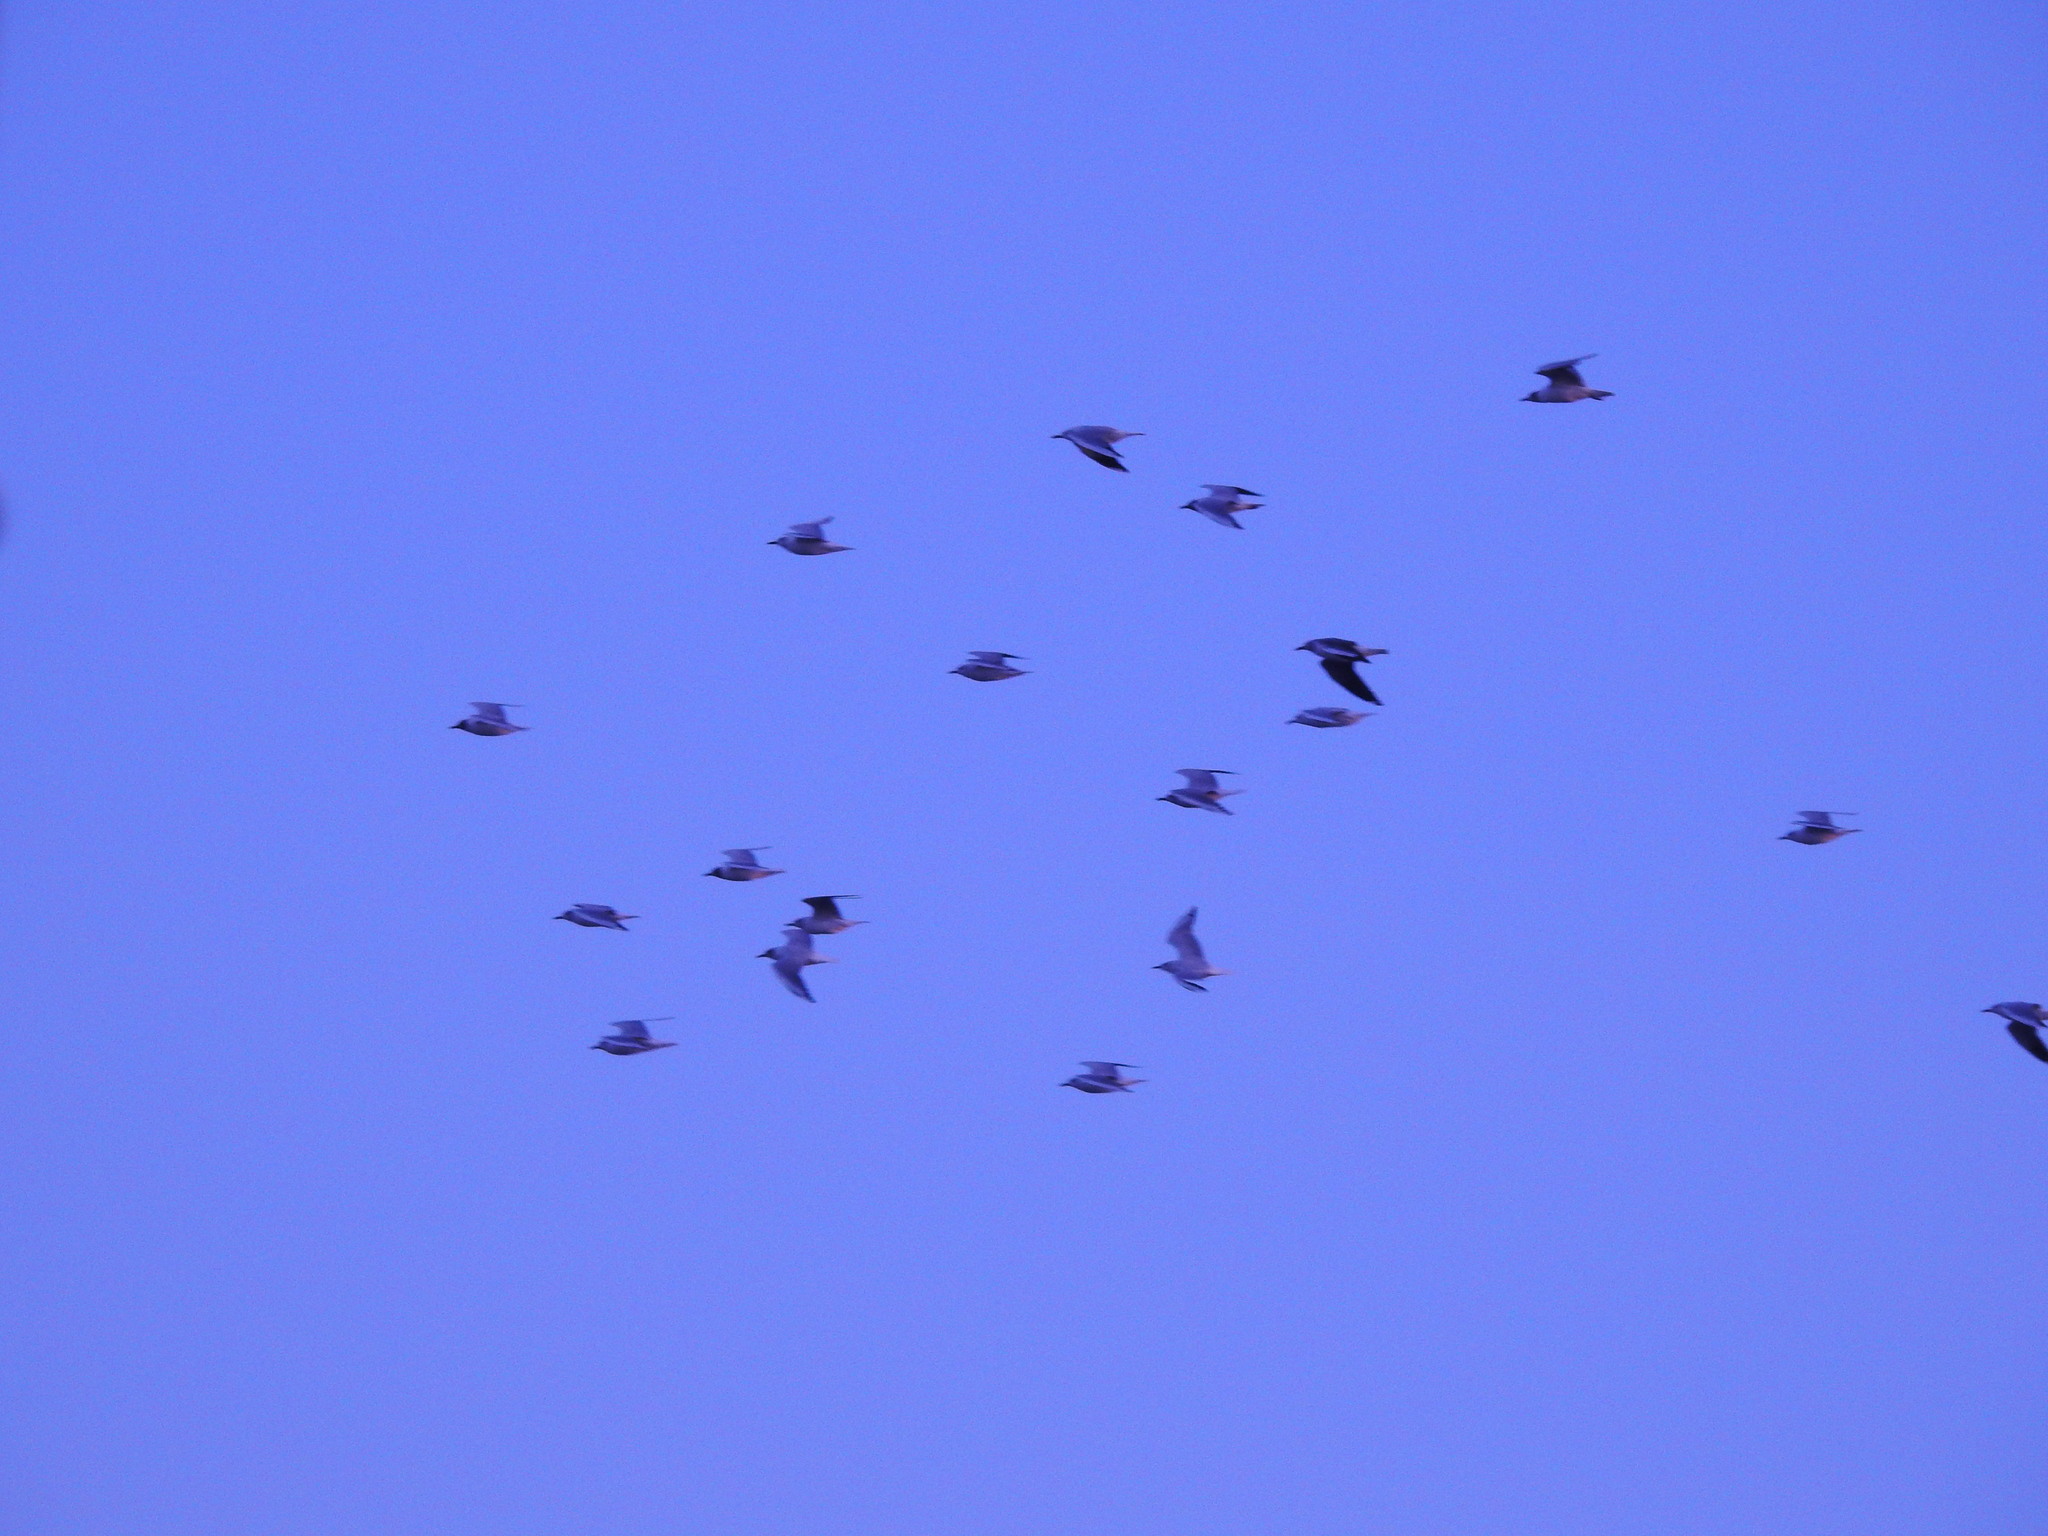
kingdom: Animalia
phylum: Chordata
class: Aves
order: Charadriiformes
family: Laridae
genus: Chroicocephalus
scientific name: Chroicocephalus maculipennis
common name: Brown-hooded gull
